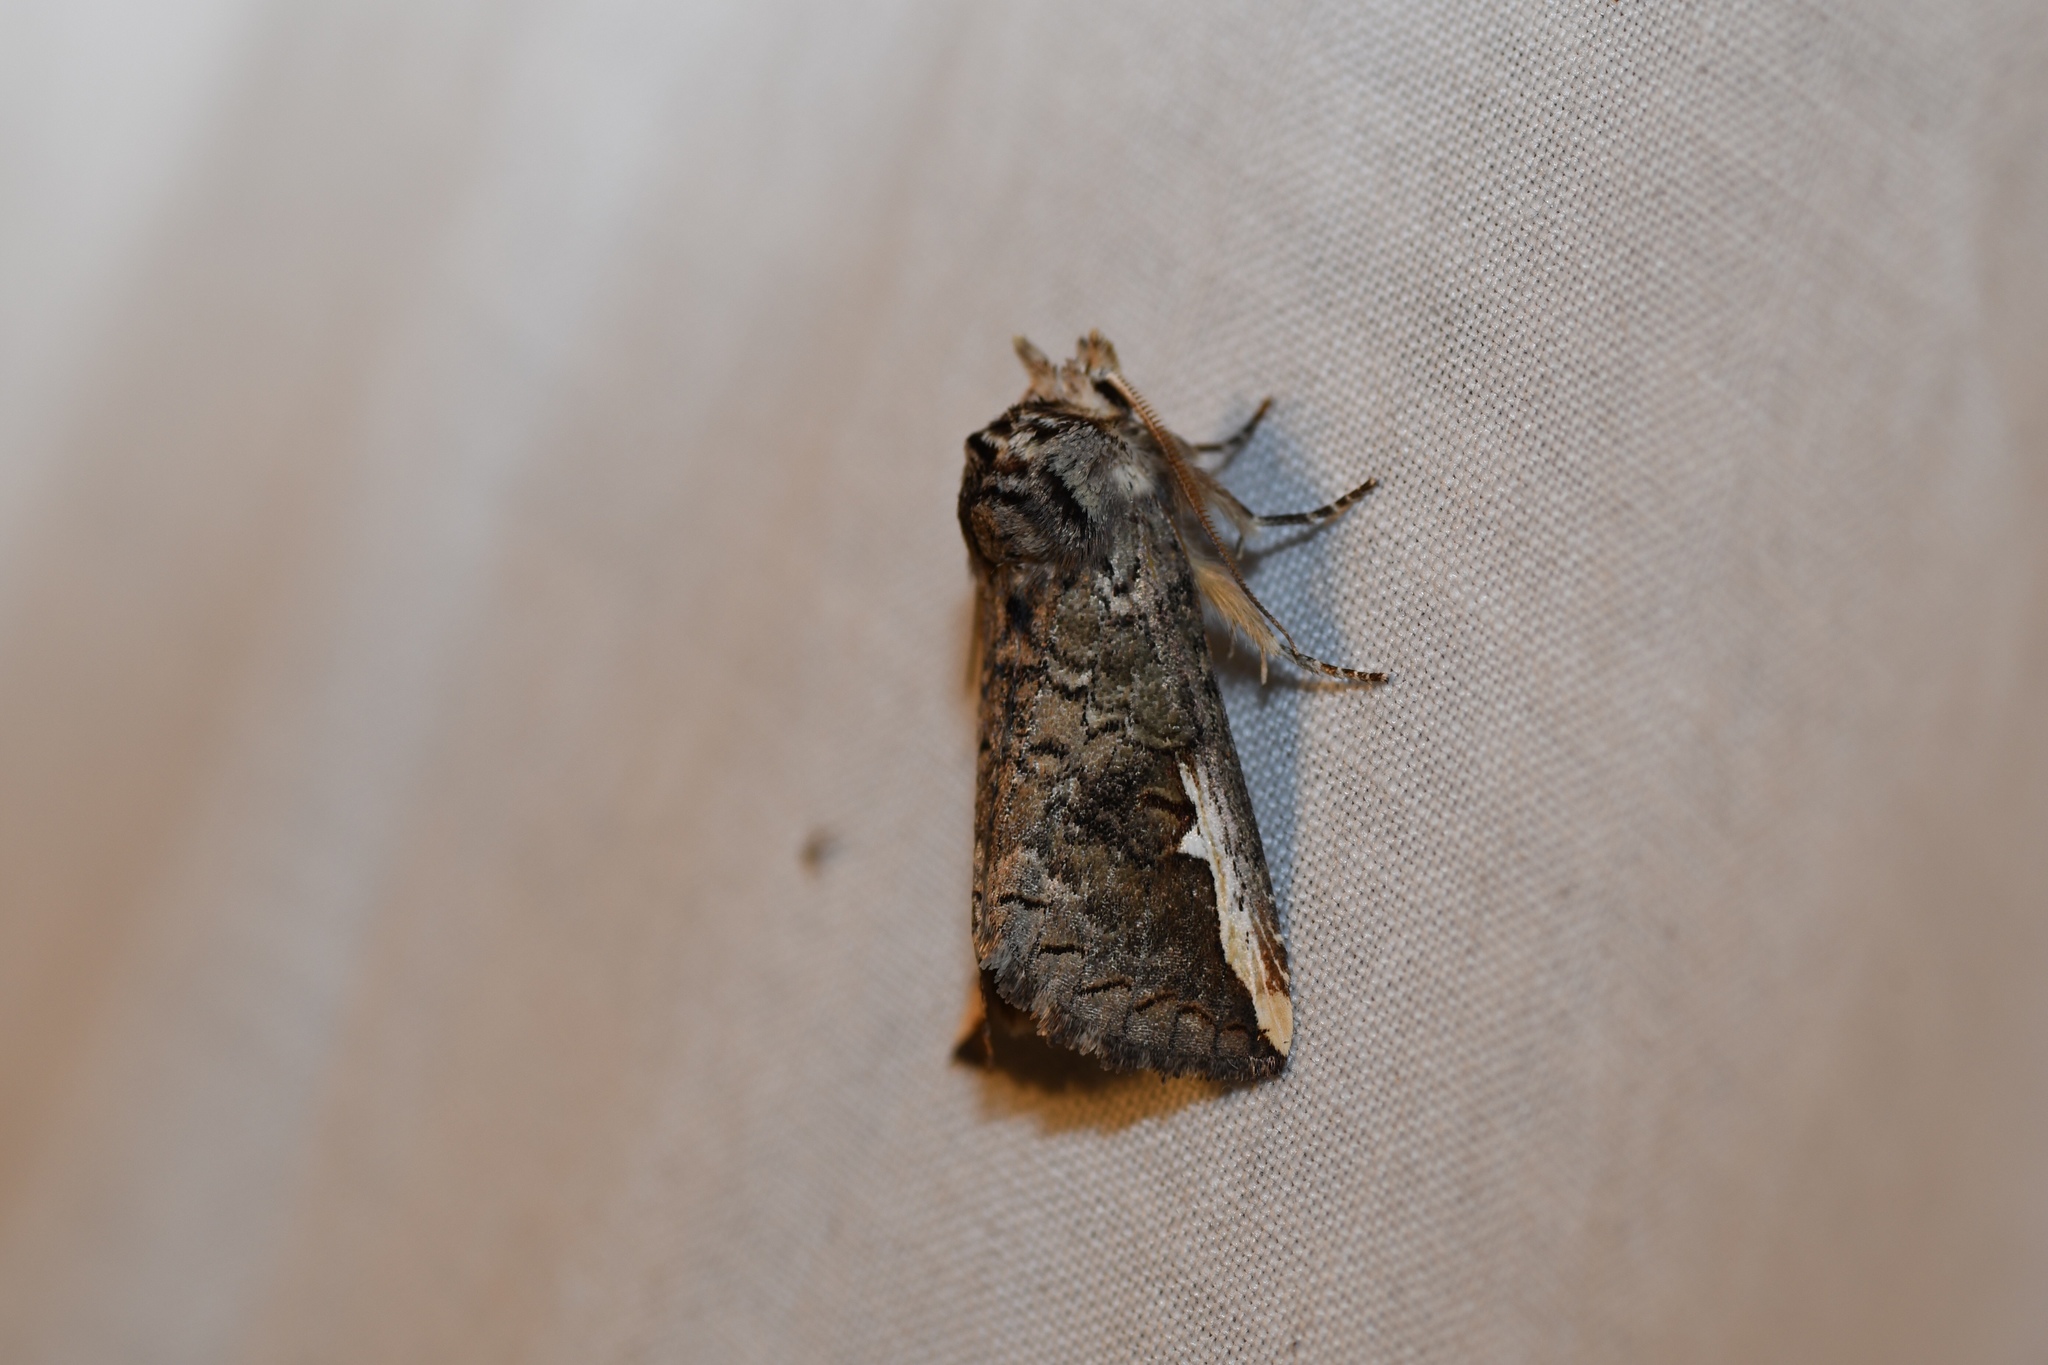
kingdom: Animalia
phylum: Arthropoda
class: Insecta
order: Lepidoptera
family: Notodontidae
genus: Symmerista
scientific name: Symmerista
